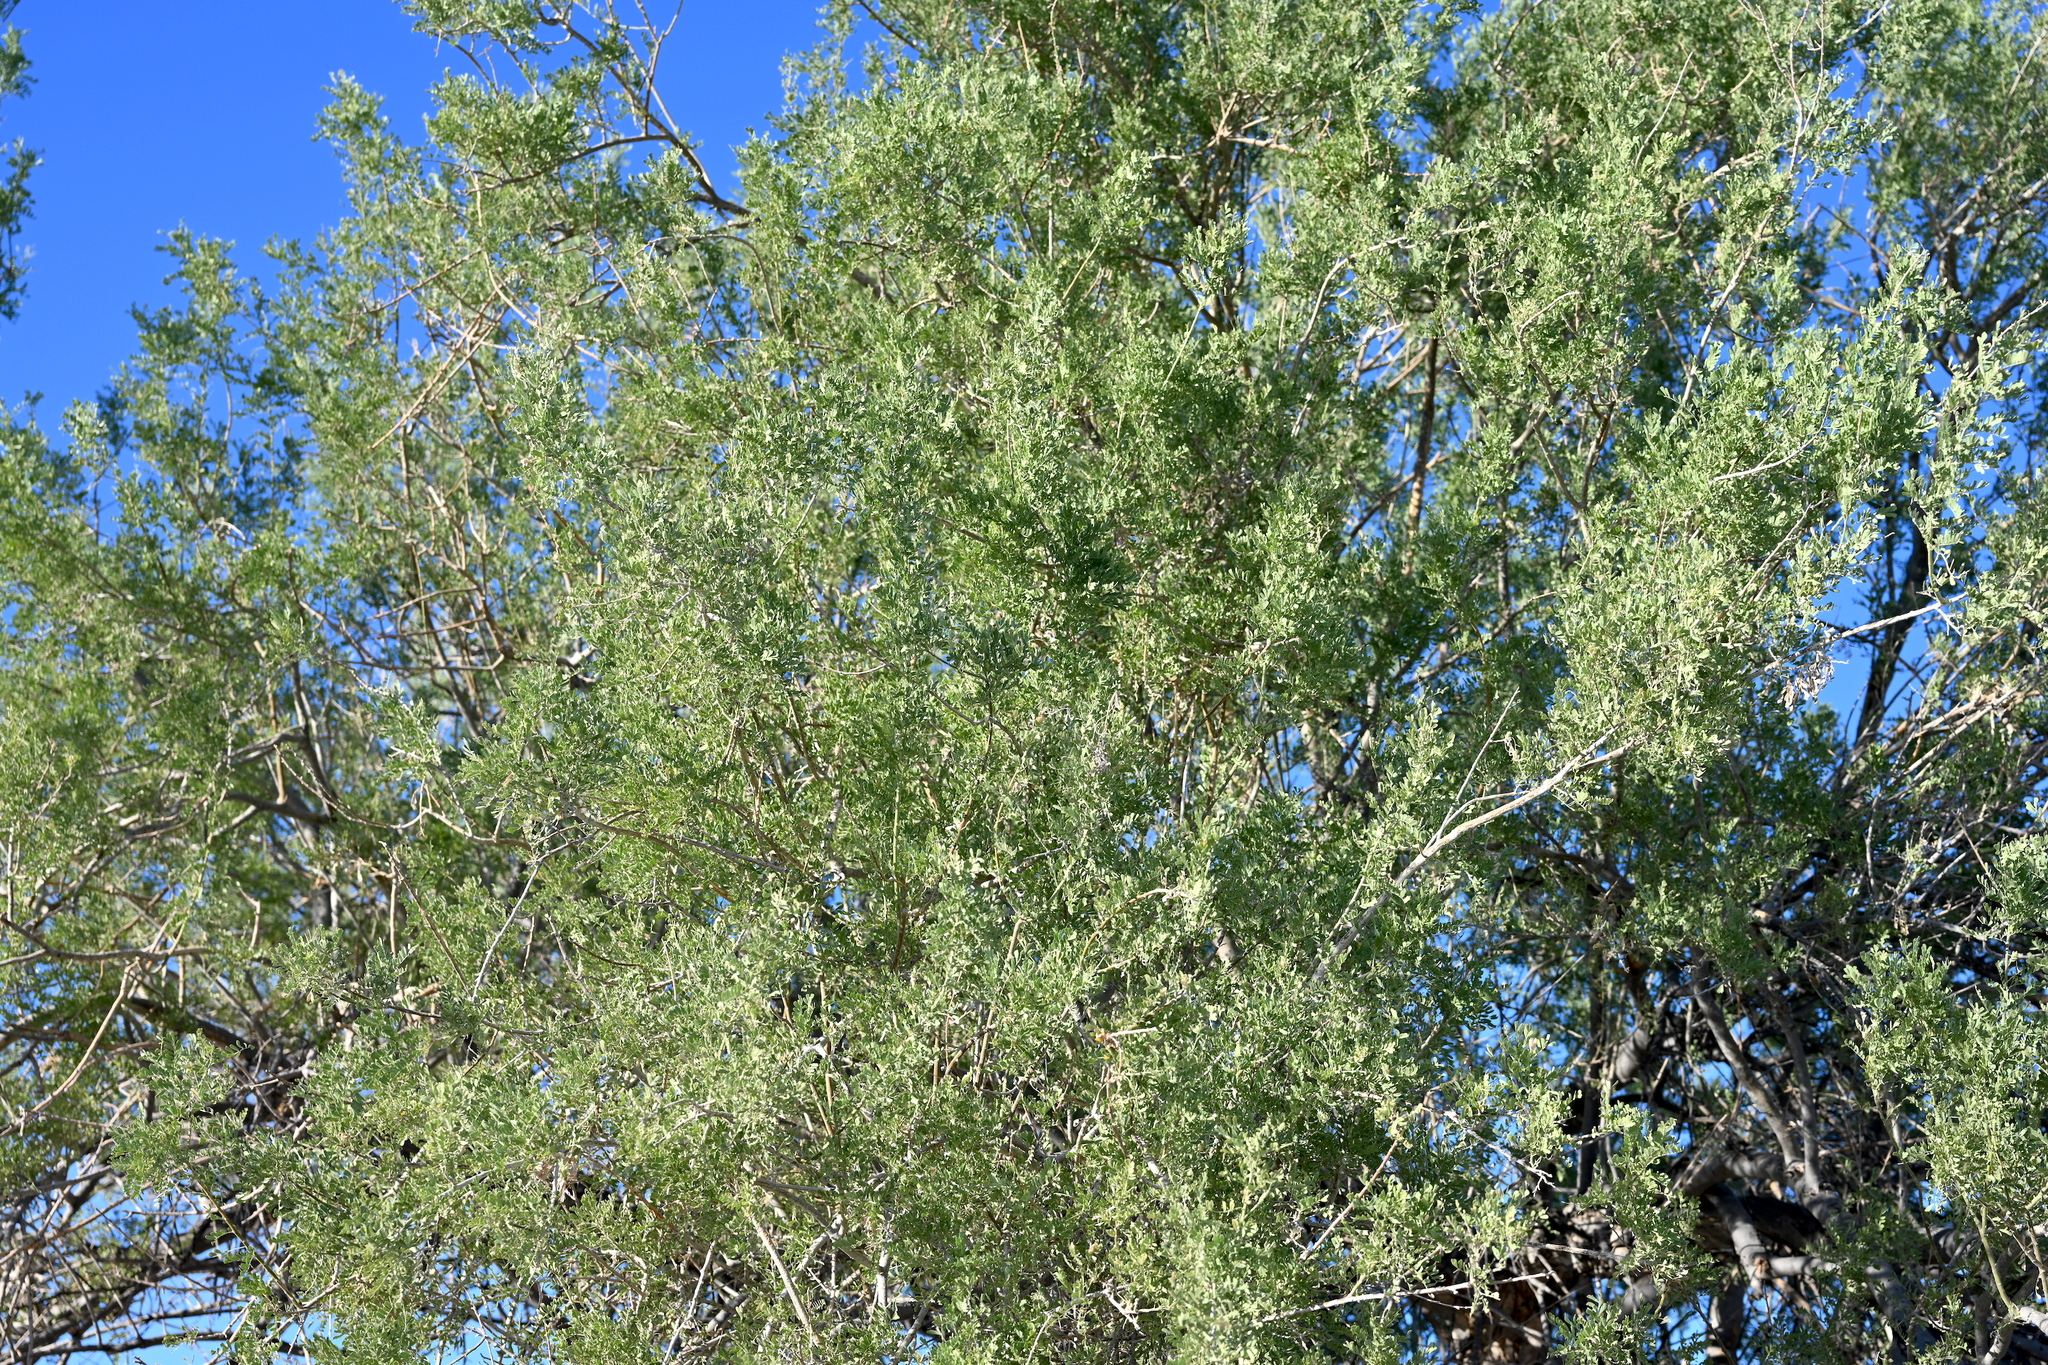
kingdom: Plantae
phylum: Tracheophyta
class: Magnoliopsida
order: Sapindales
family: Burseraceae
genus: Bursera
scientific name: Bursera hindsiana
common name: Red elephant tree
